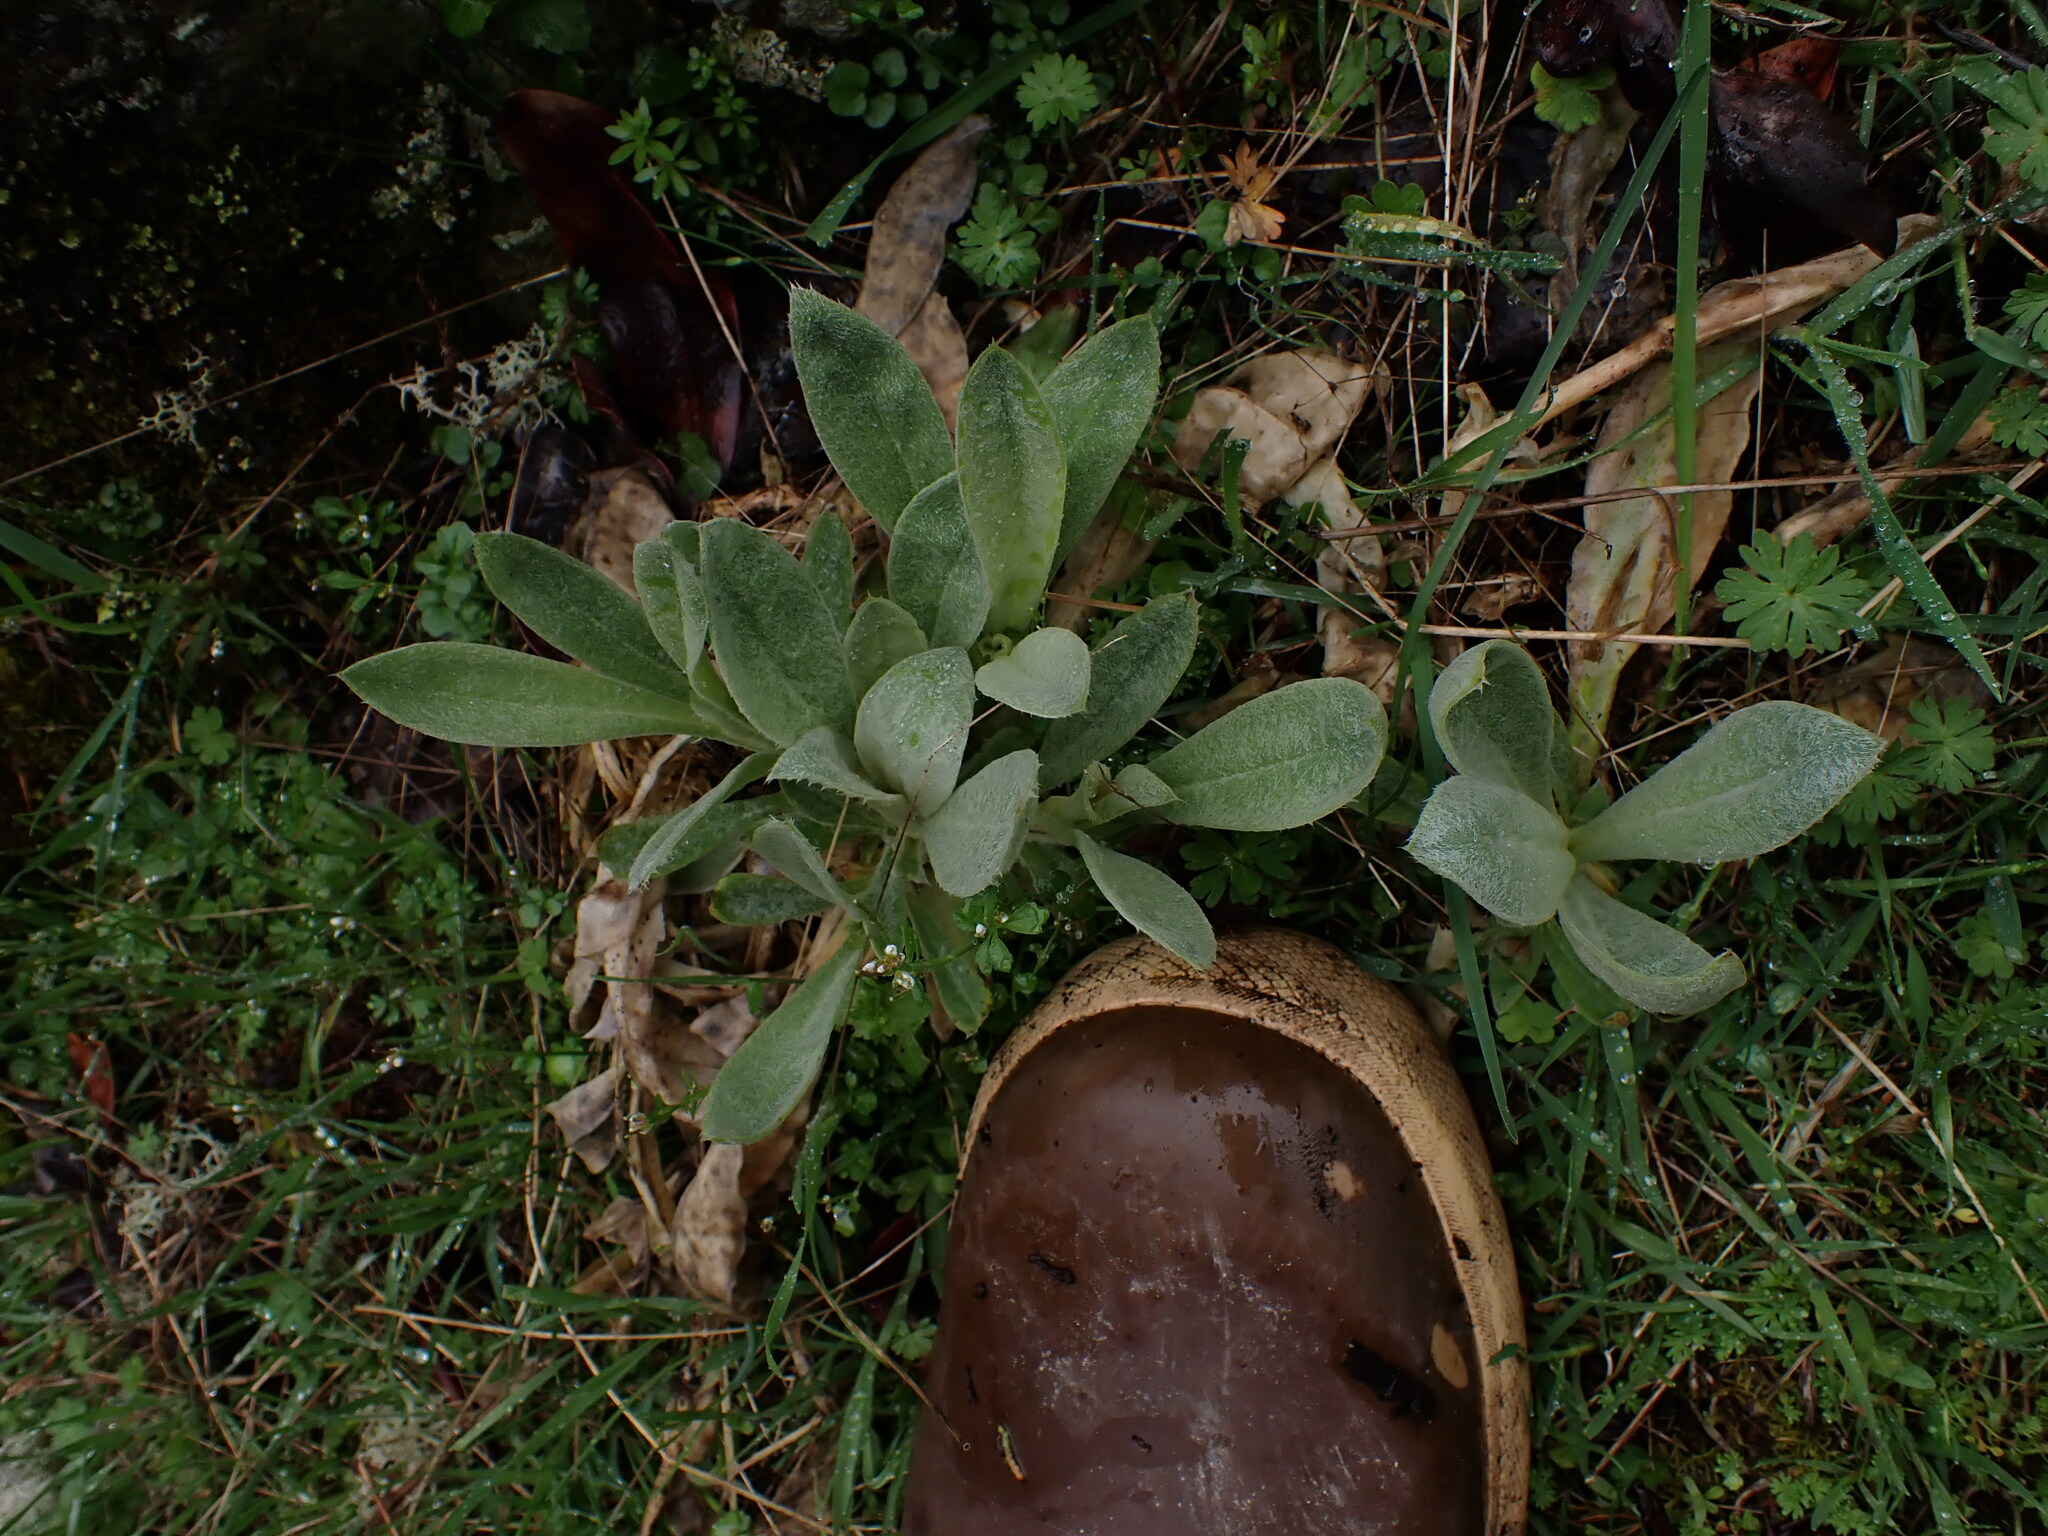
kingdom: Plantae
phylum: Tracheophyta
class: Magnoliopsida
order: Caryophyllales
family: Caryophyllaceae
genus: Silene
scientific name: Silene coronaria
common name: Rose campion
